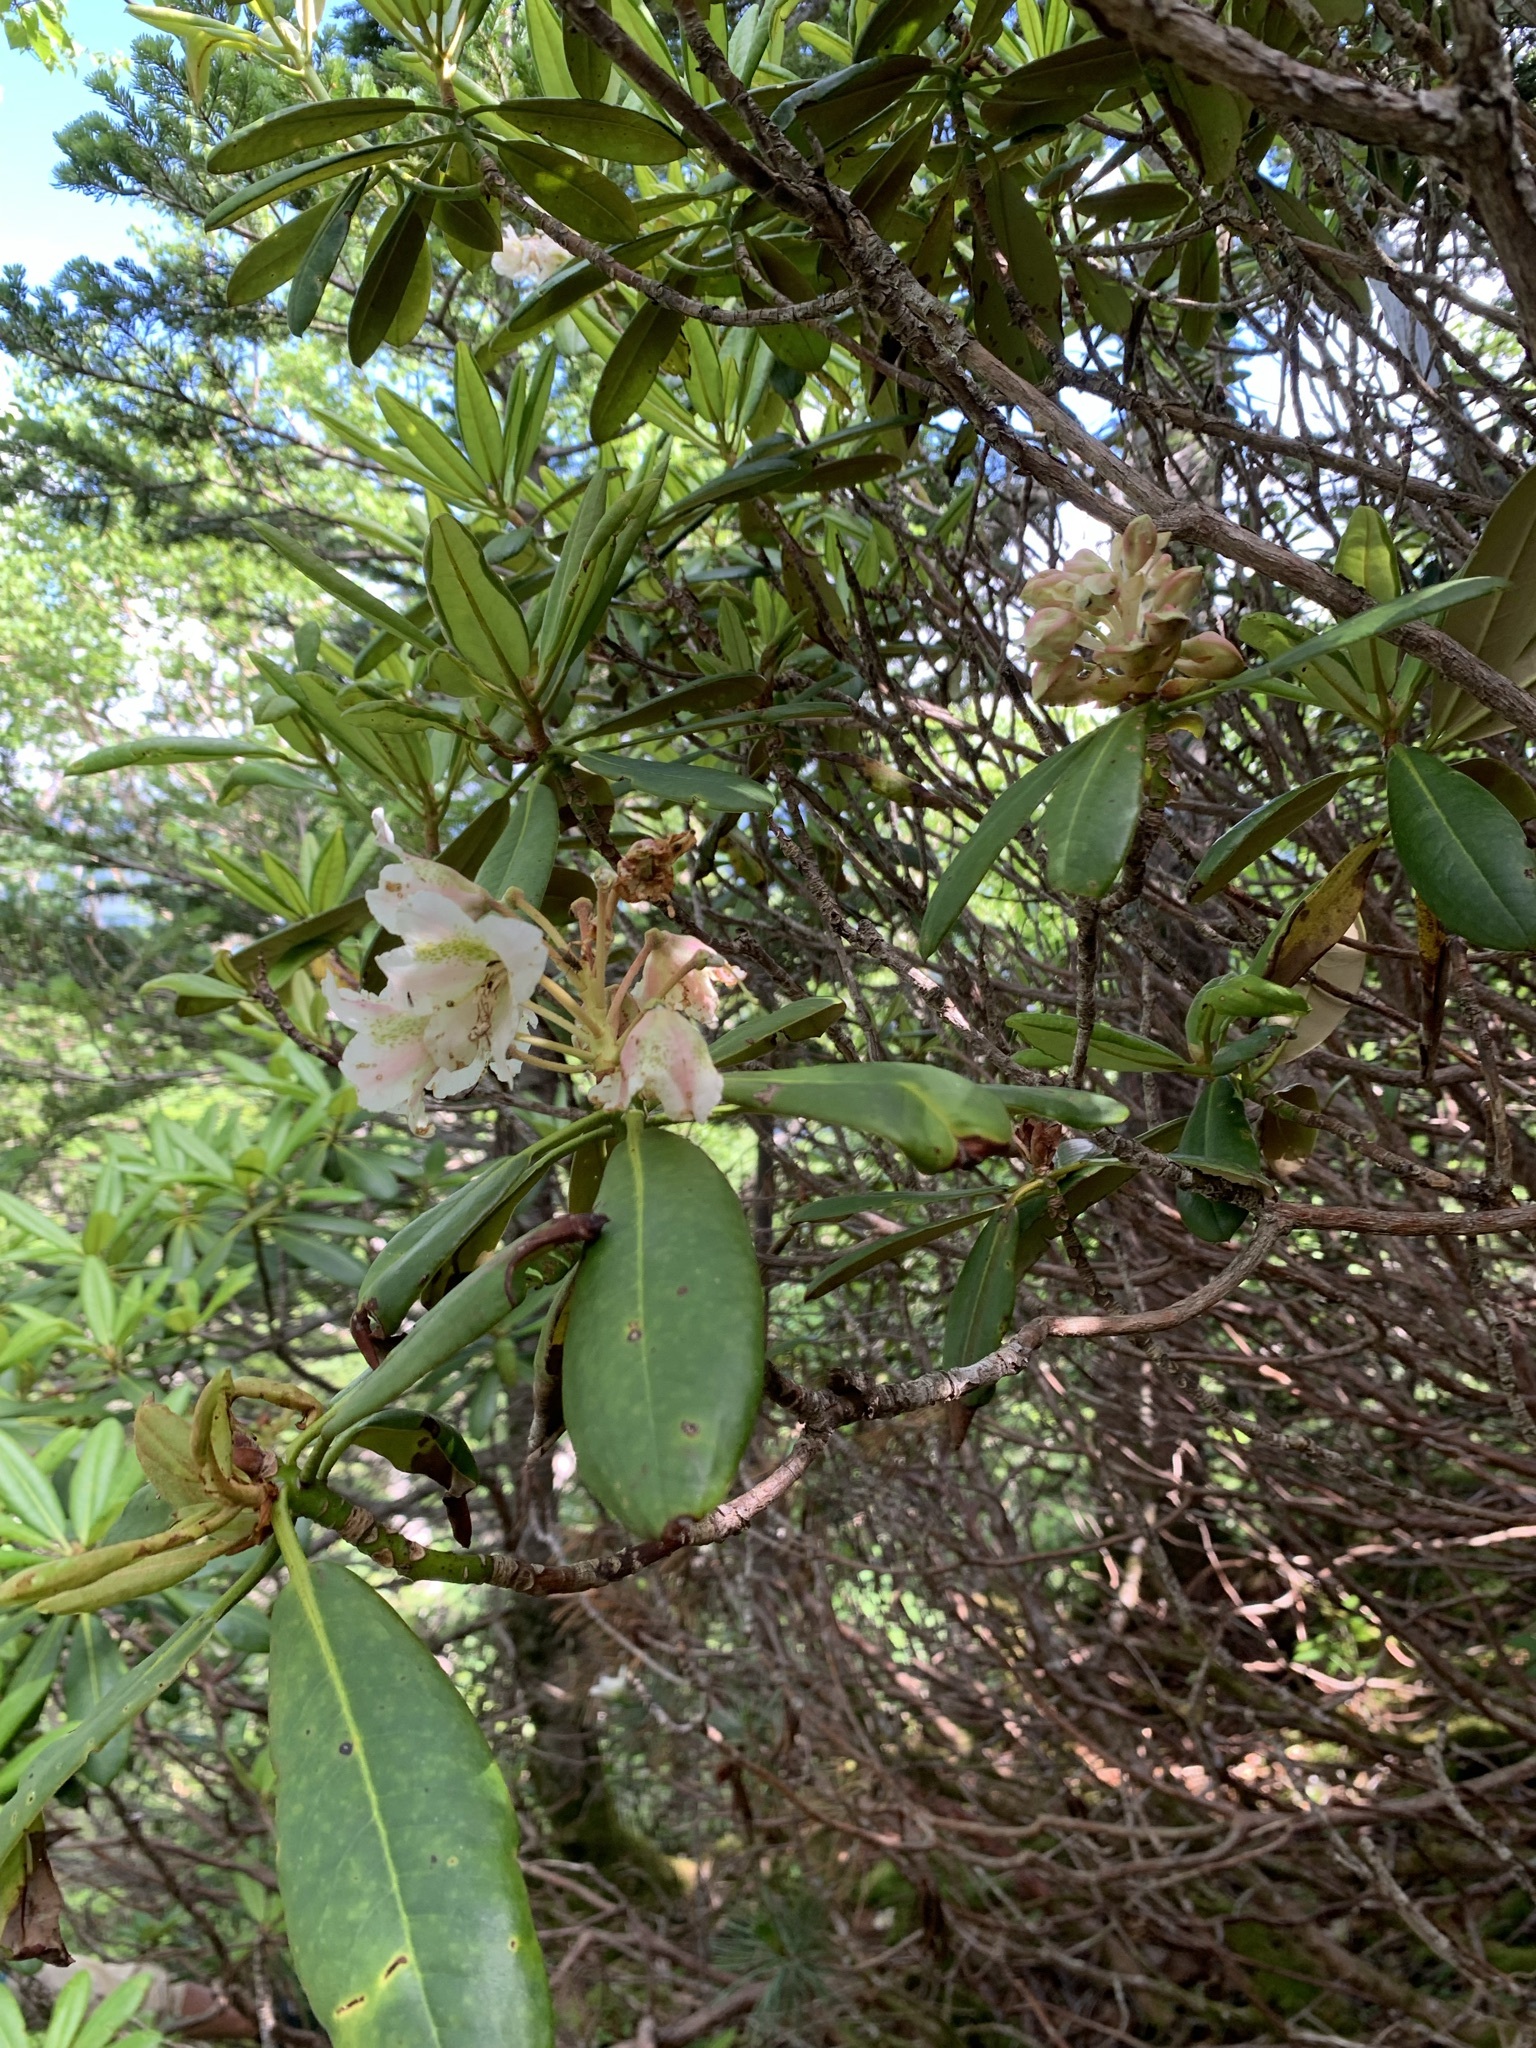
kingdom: Plantae
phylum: Tracheophyta
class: Magnoliopsida
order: Ericales
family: Ericaceae
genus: Rhododendron
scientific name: Rhododendron brachycarpum
